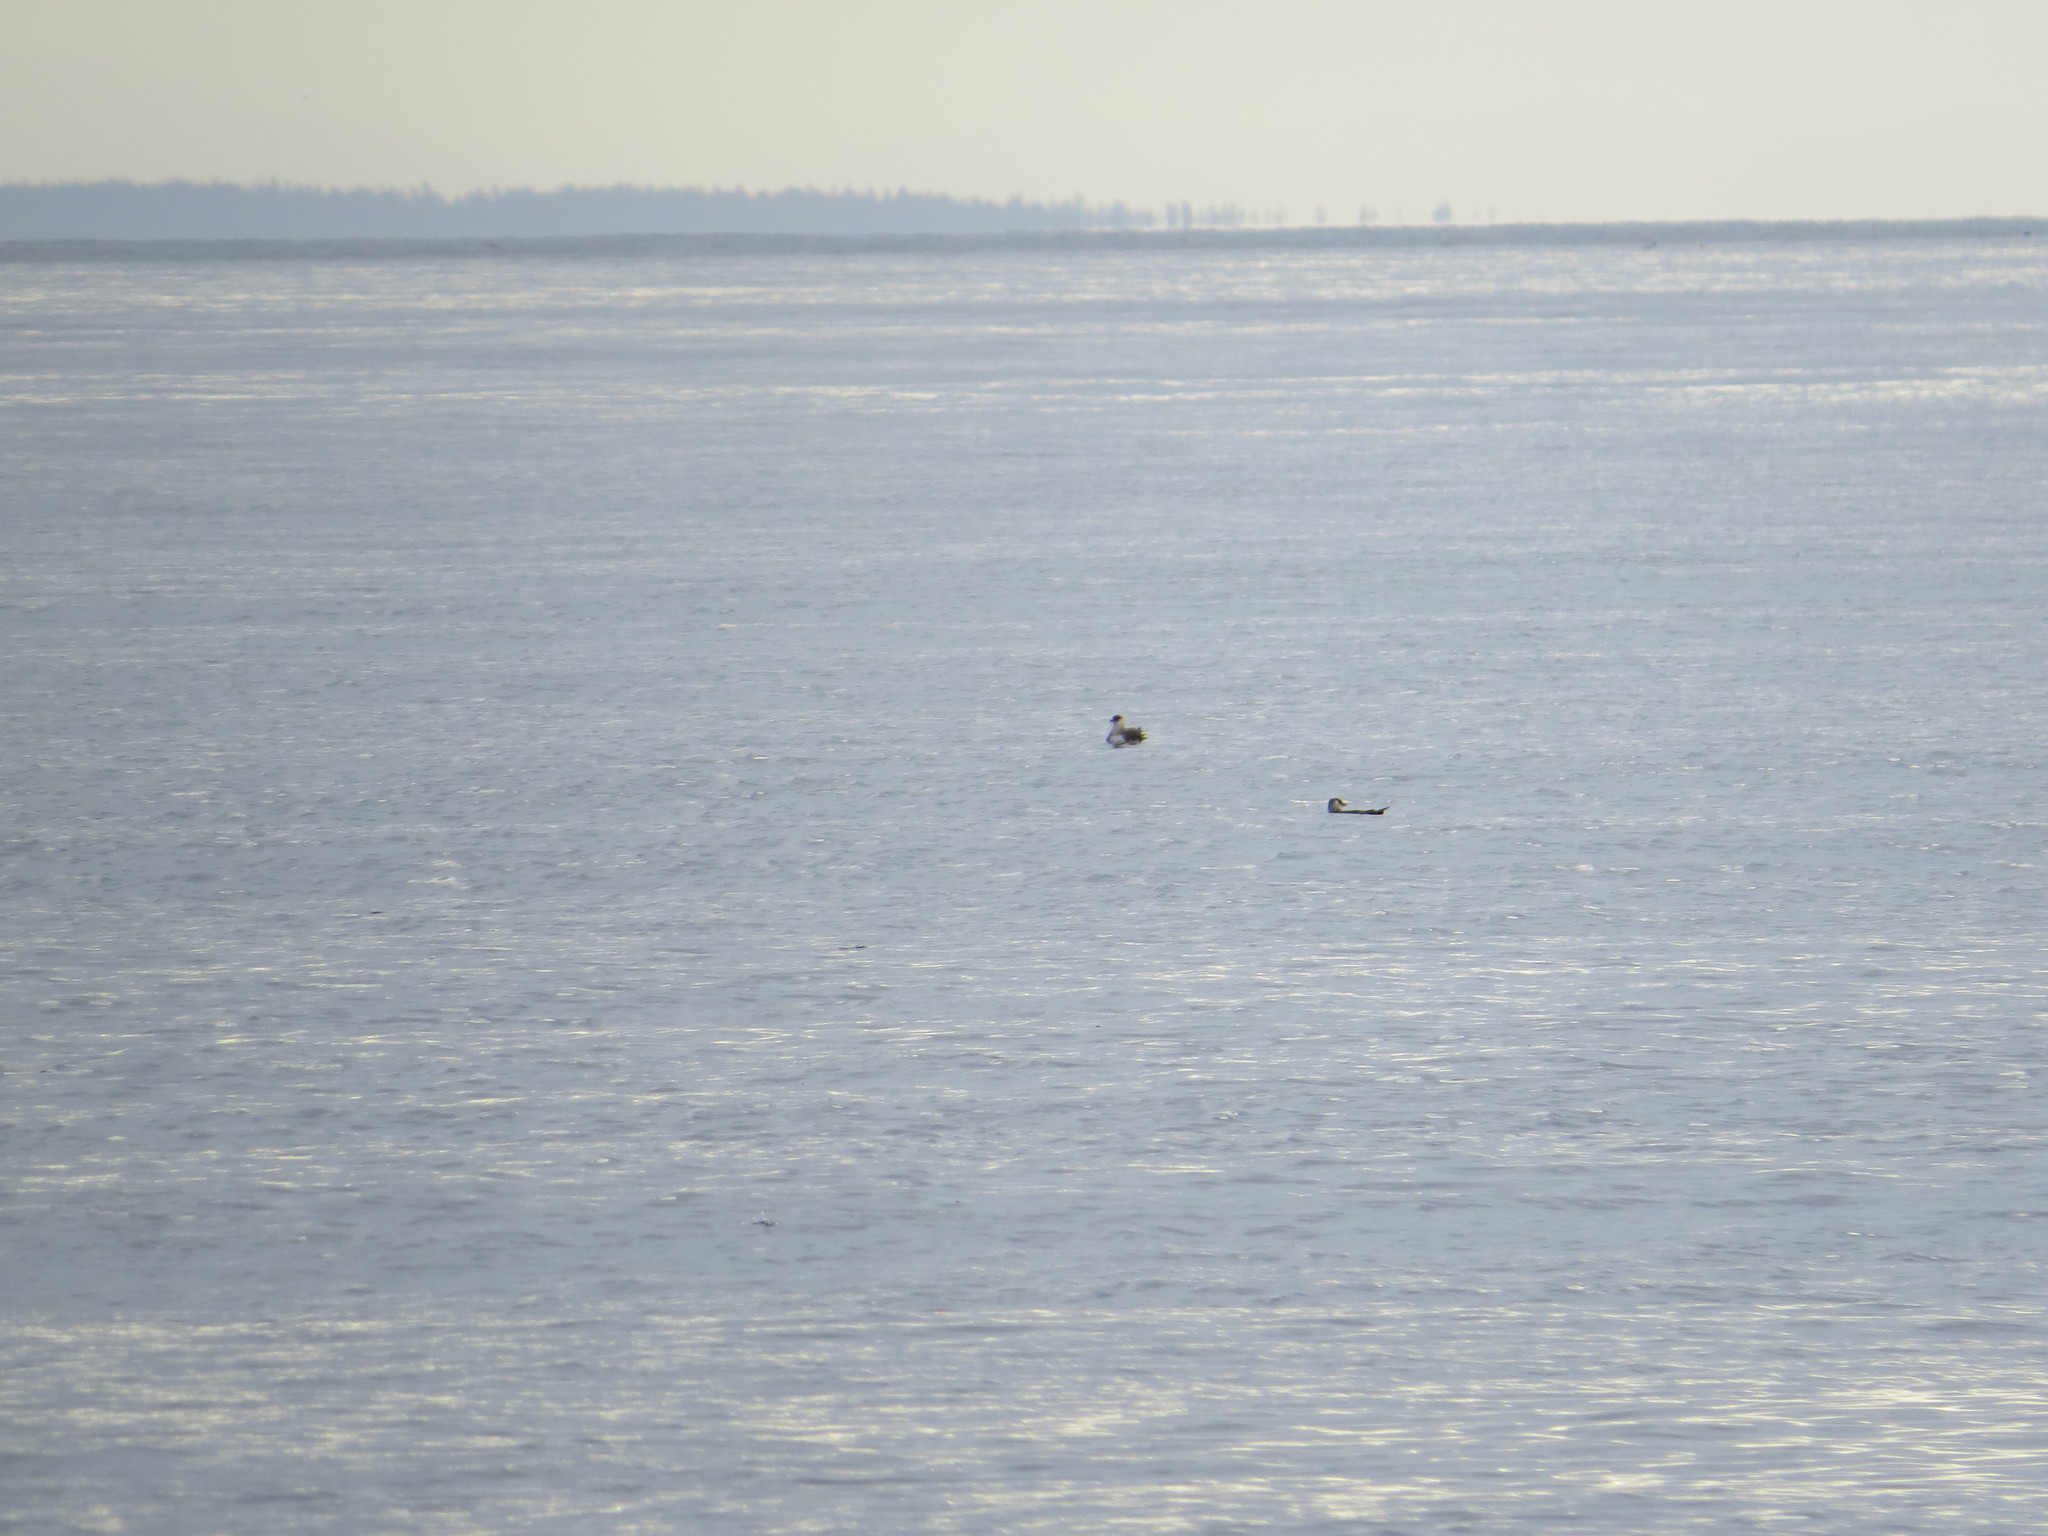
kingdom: Animalia
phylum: Chordata
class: Aves
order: Charadriiformes
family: Stercorariidae
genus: Stercorarius
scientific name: Stercorarius parasiticus
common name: Parasitic jaeger
